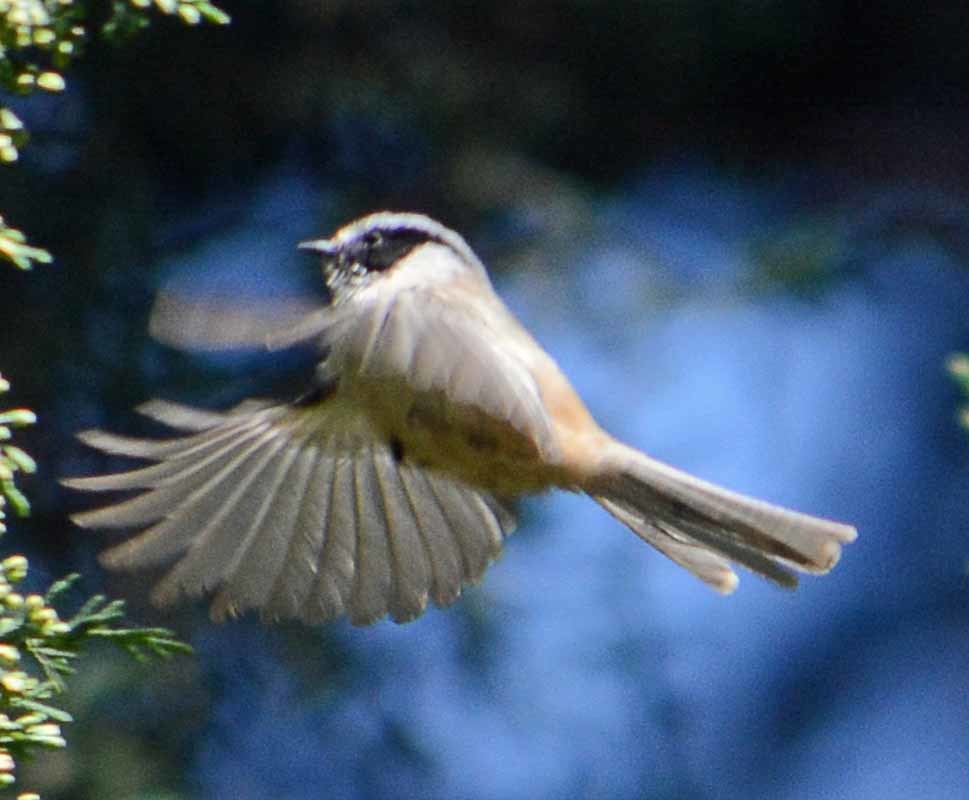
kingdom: Animalia
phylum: Chordata
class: Aves
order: Passeriformes
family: Aegithalidae
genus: Psaltriparus
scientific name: Psaltriparus minimus
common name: American bushtit
